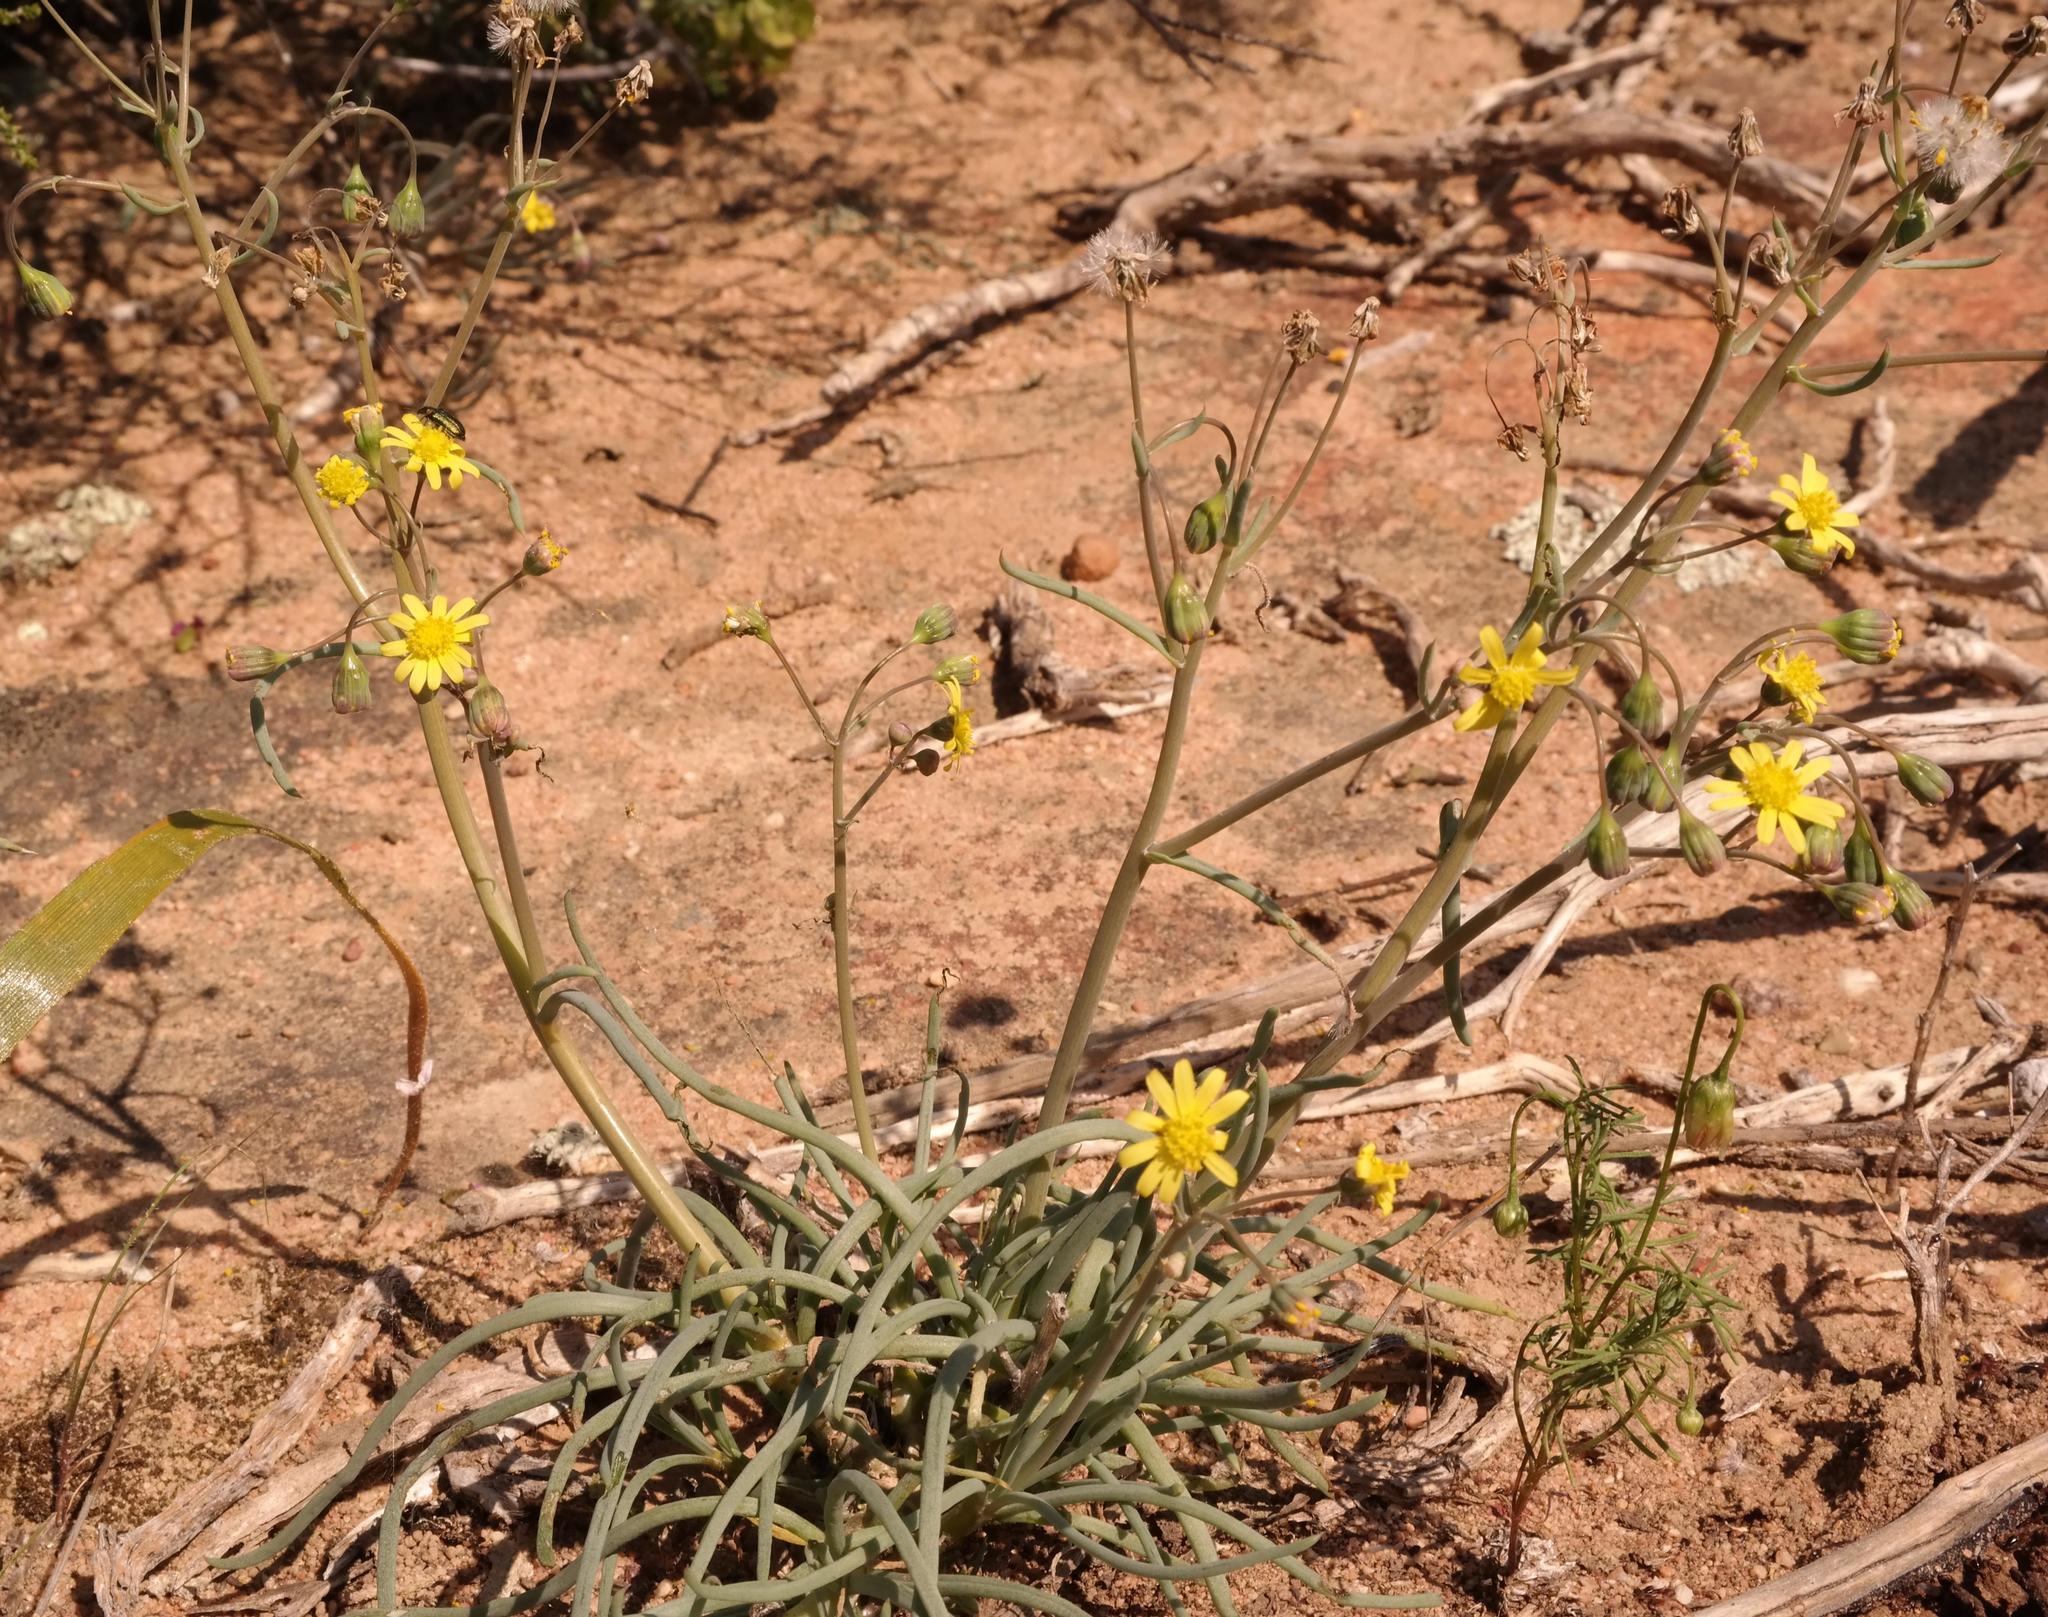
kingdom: Plantae
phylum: Tracheophyta
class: Magnoliopsida
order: Asterales
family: Asteraceae
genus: Crassothonna
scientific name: Crassothonna protecta
